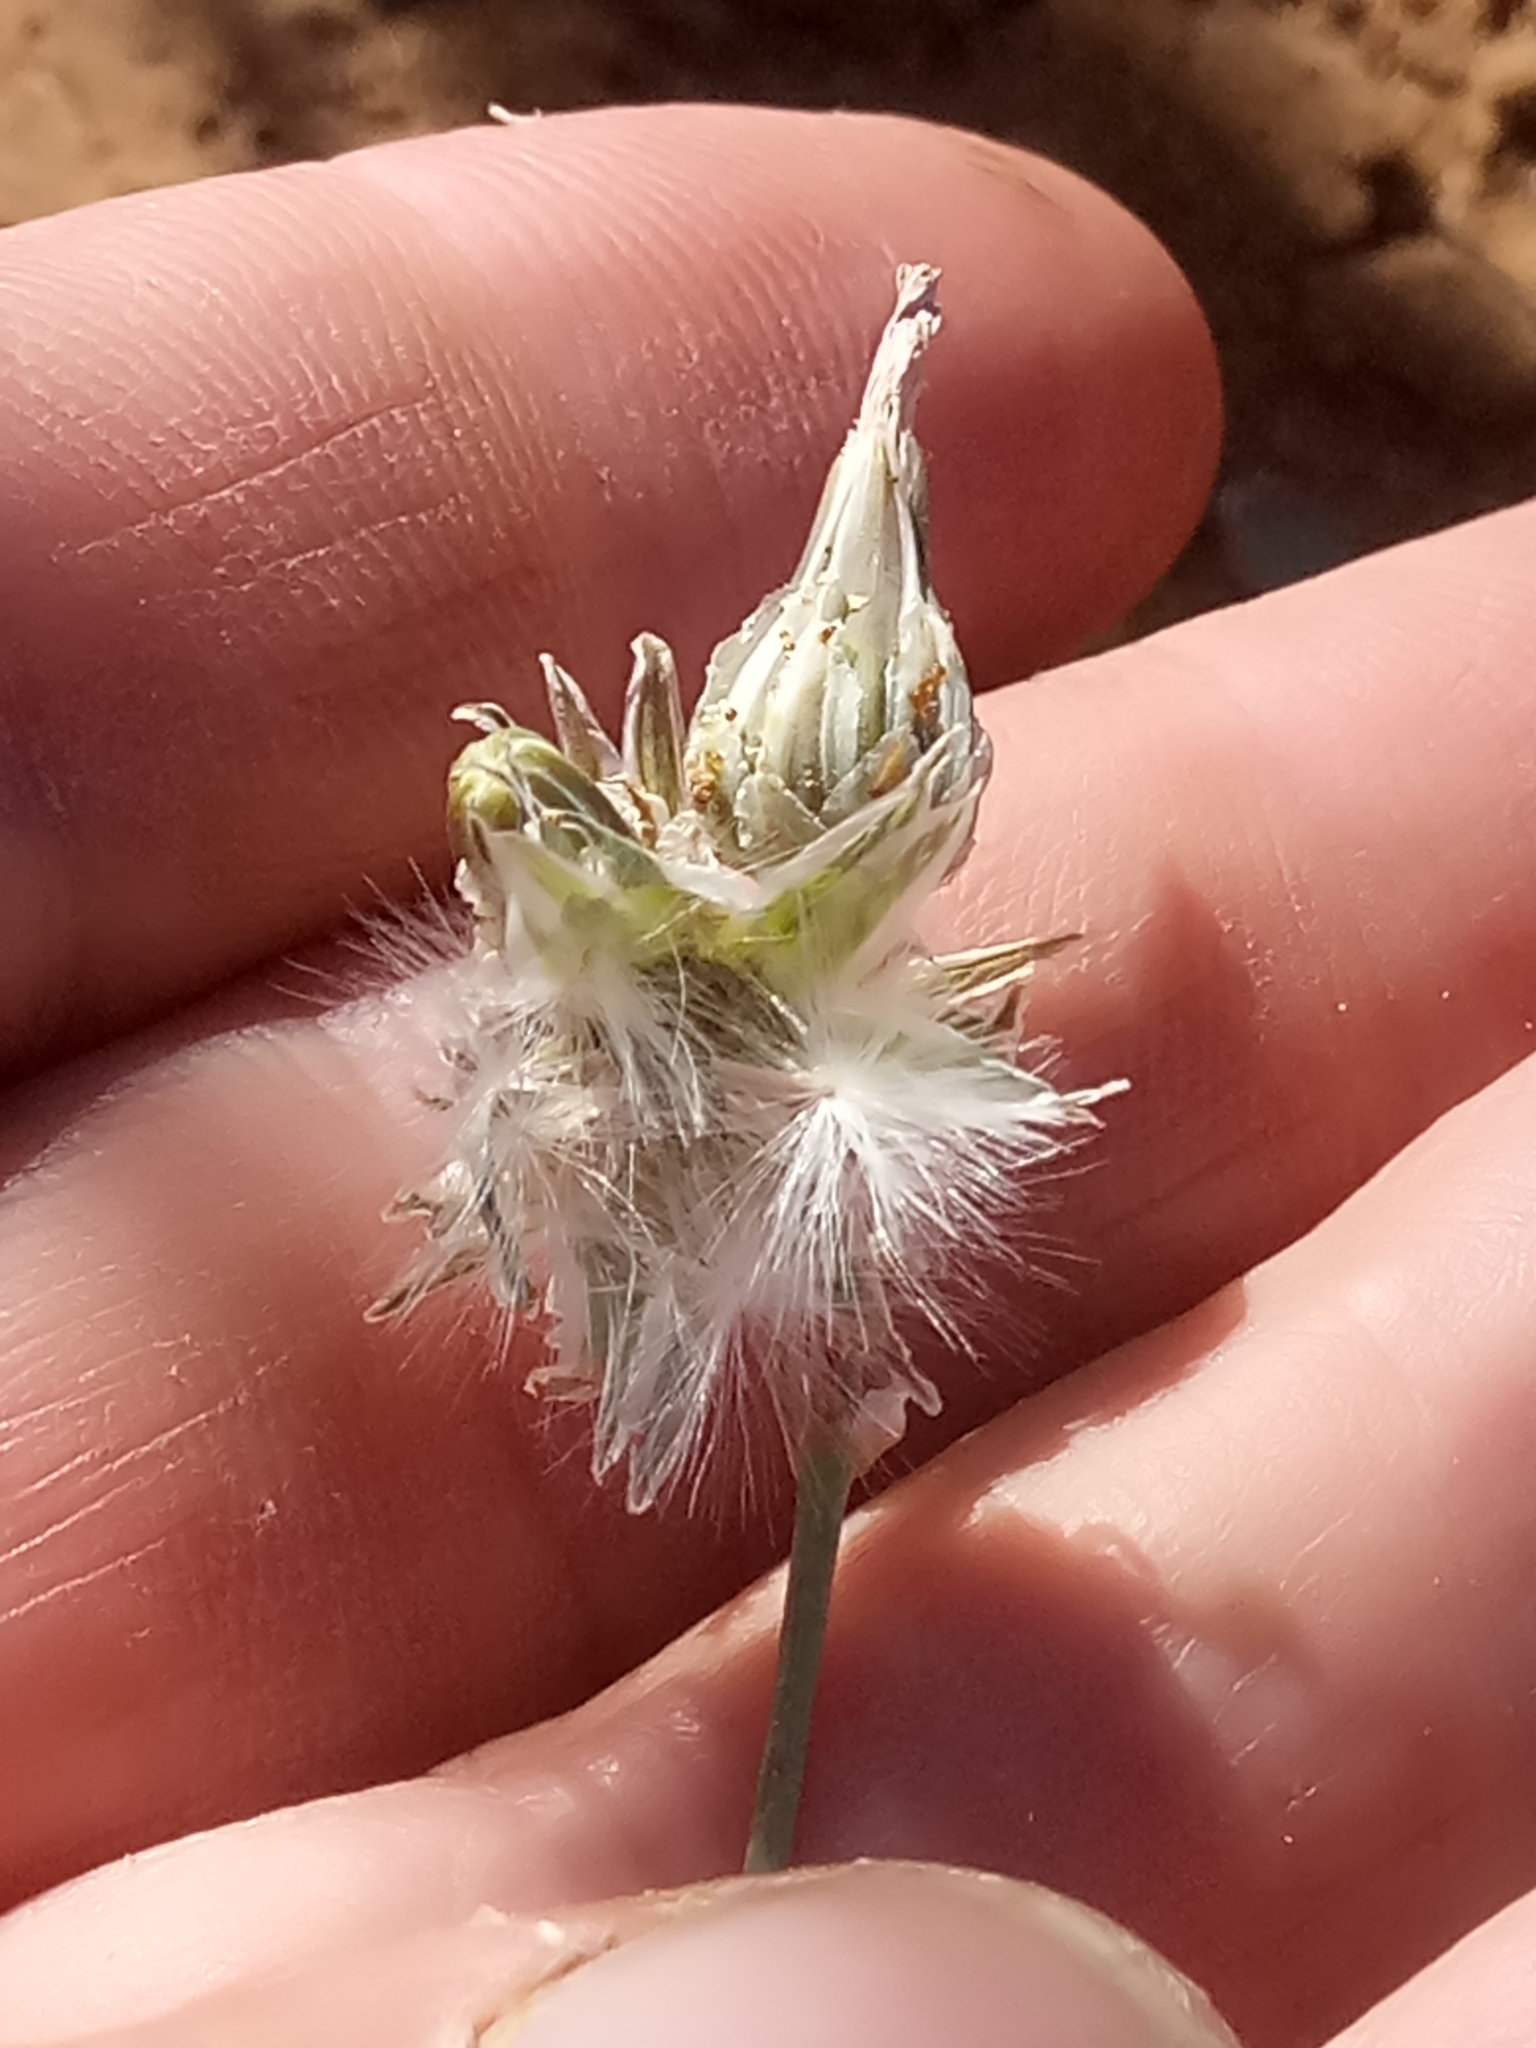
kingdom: Plantae
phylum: Tracheophyta
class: Magnoliopsida
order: Asterales
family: Asteraceae
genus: Launaea
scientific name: Launaea capitata
